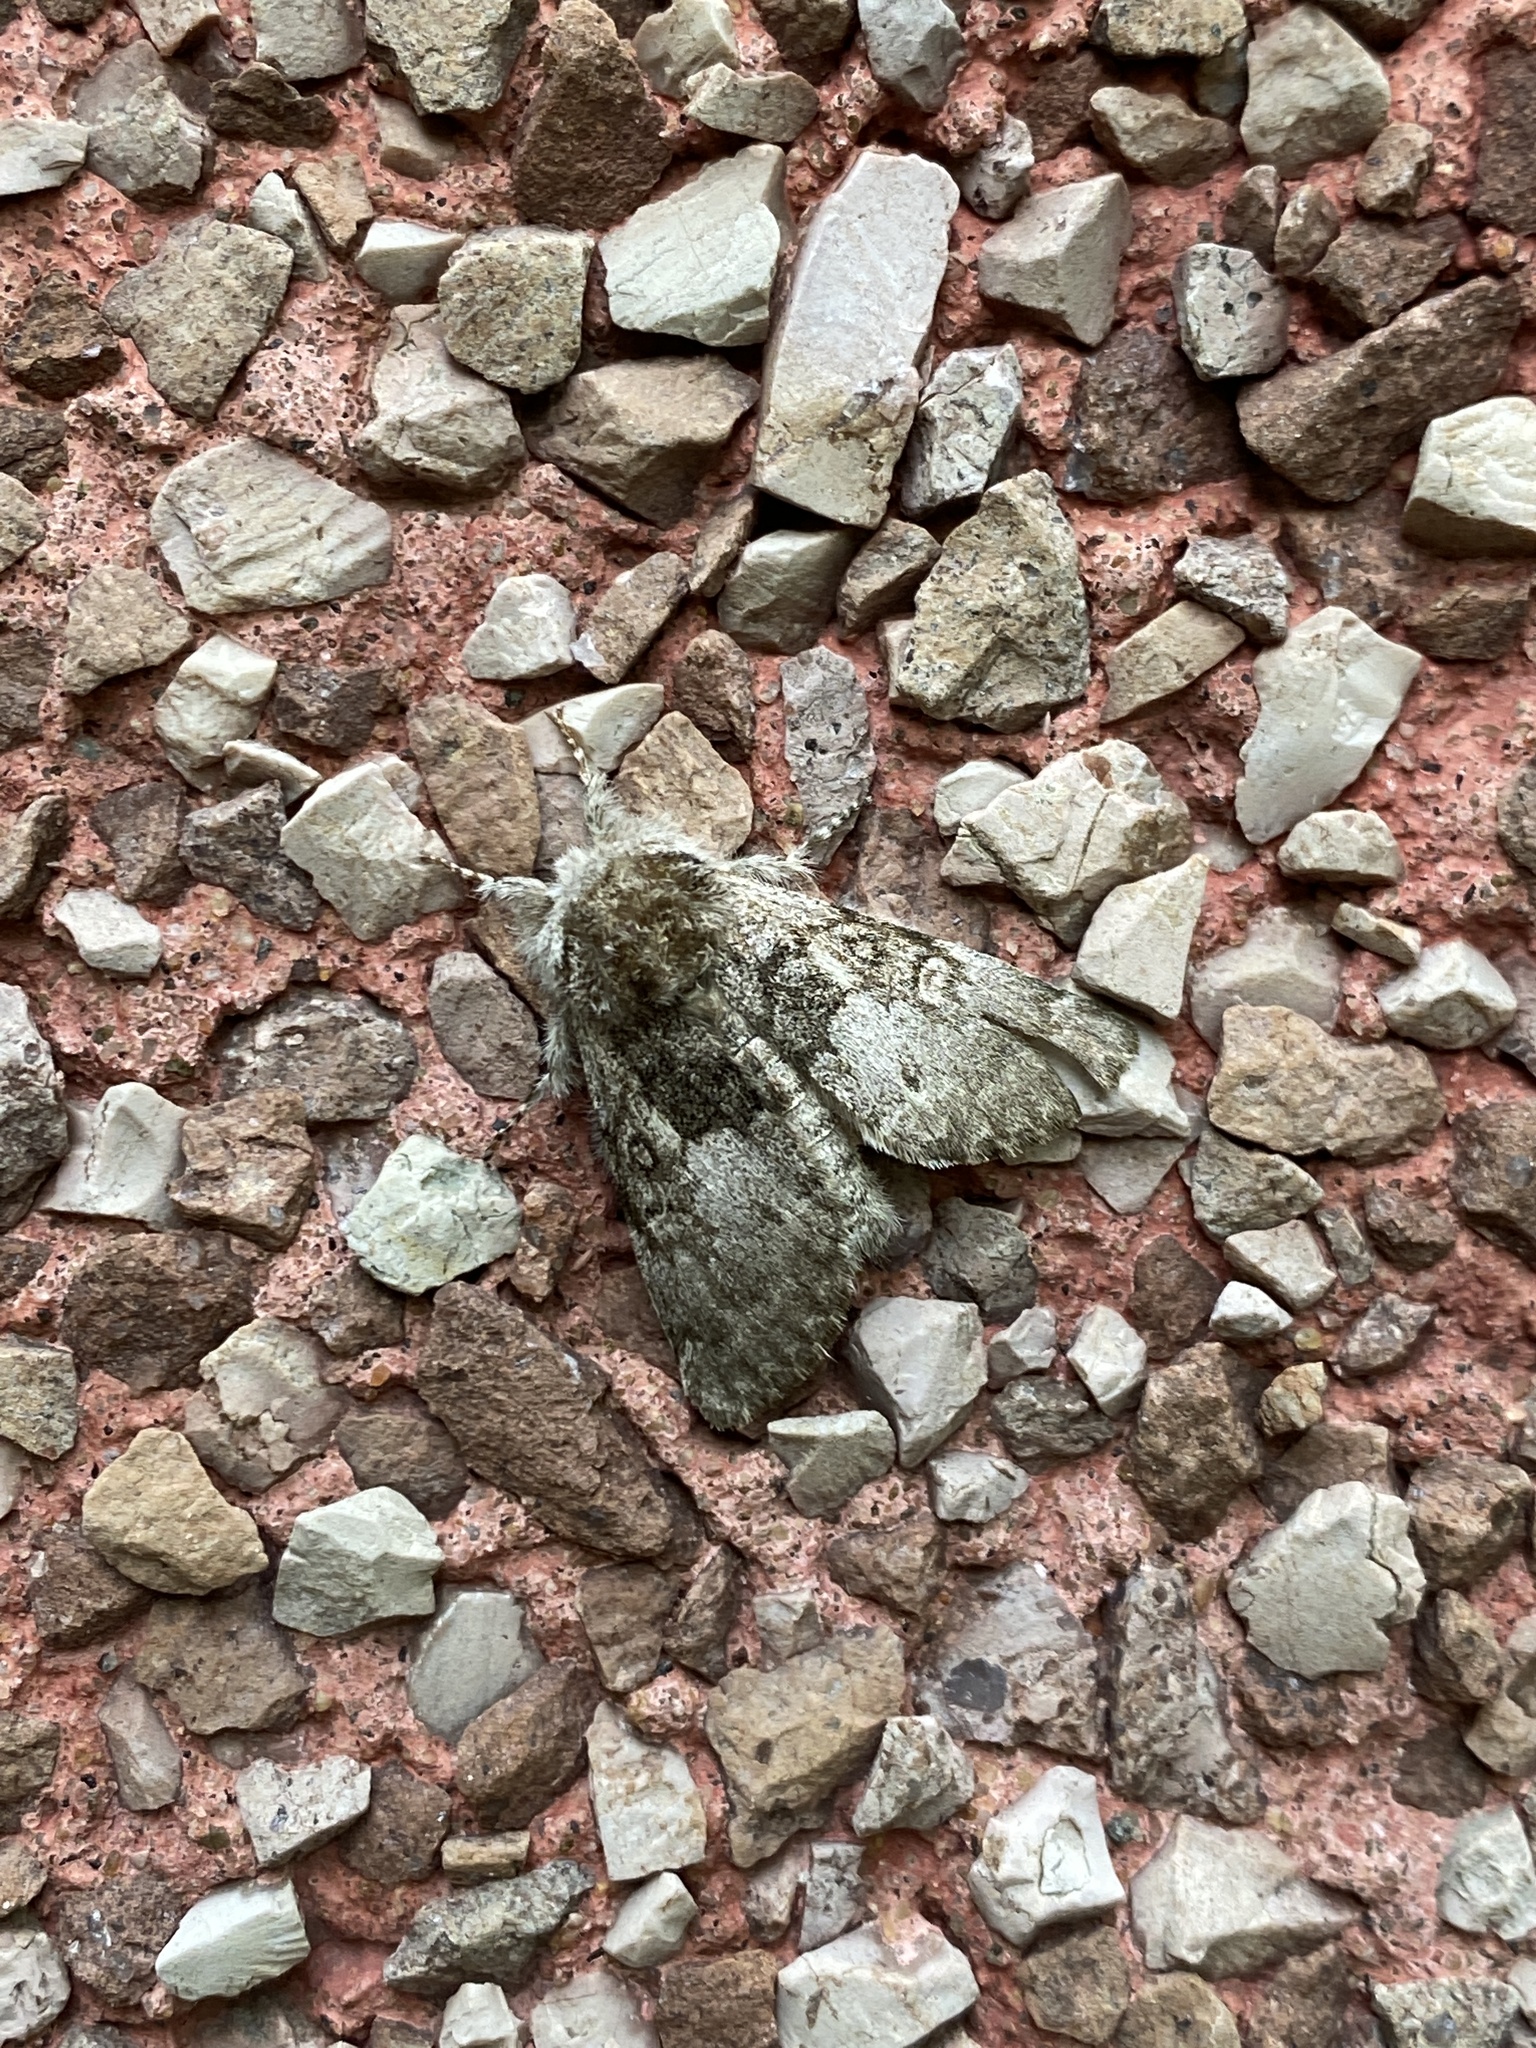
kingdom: Animalia
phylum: Arthropoda
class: Insecta
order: Lepidoptera
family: Noctuidae
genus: Colocasia
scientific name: Colocasia flavicornis
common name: Saddled yellowhorn
